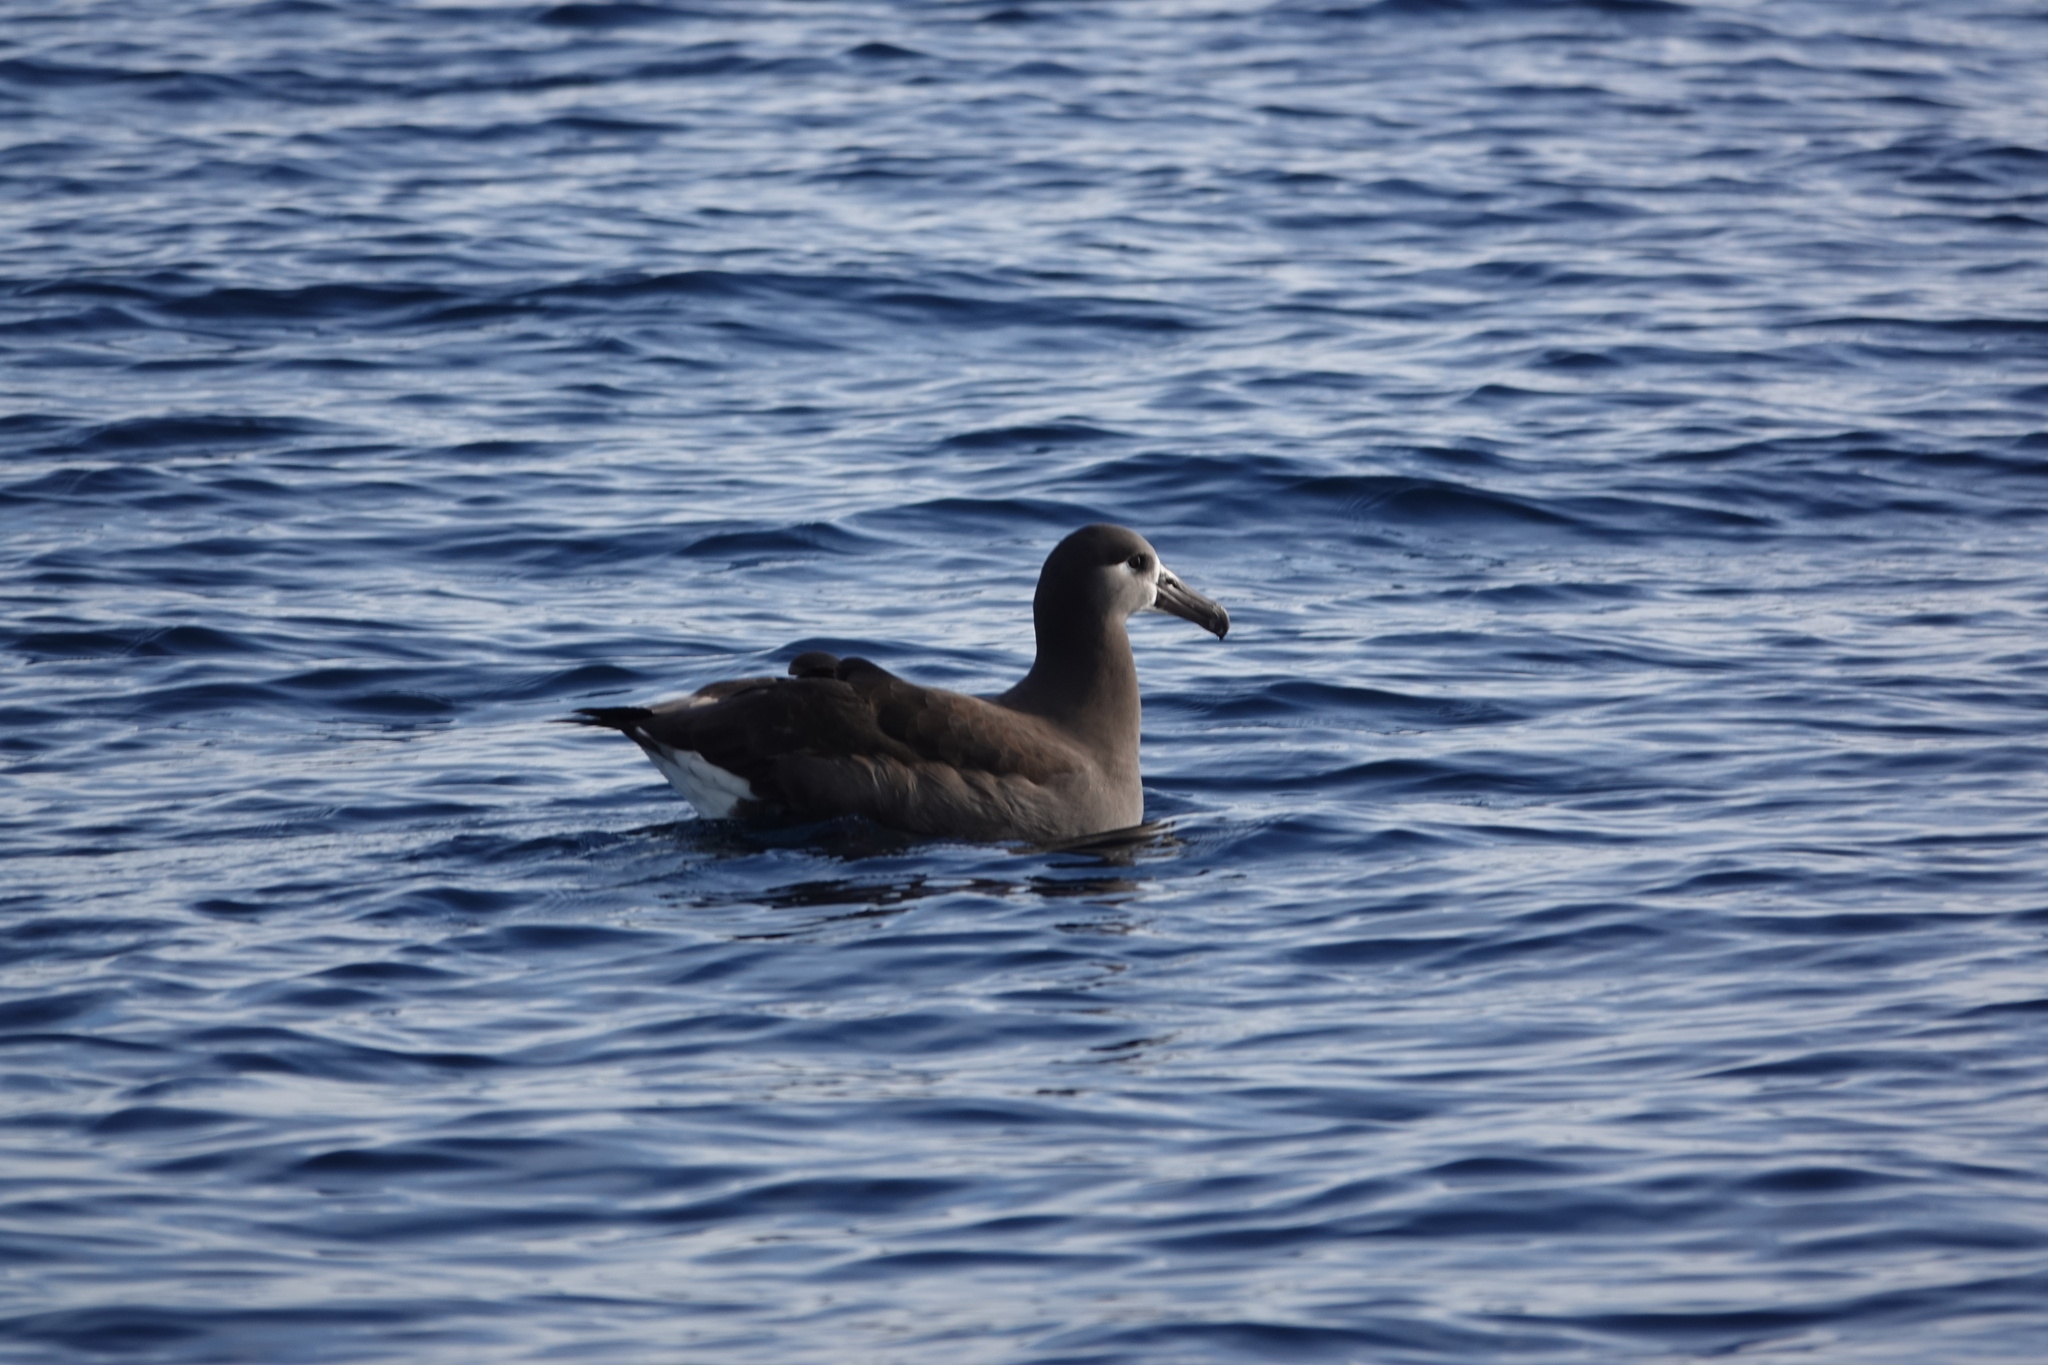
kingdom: Animalia
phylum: Chordata
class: Aves
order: Procellariiformes
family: Diomedeidae
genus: Phoebastria
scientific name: Phoebastria nigripes
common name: Black-footed albatross
